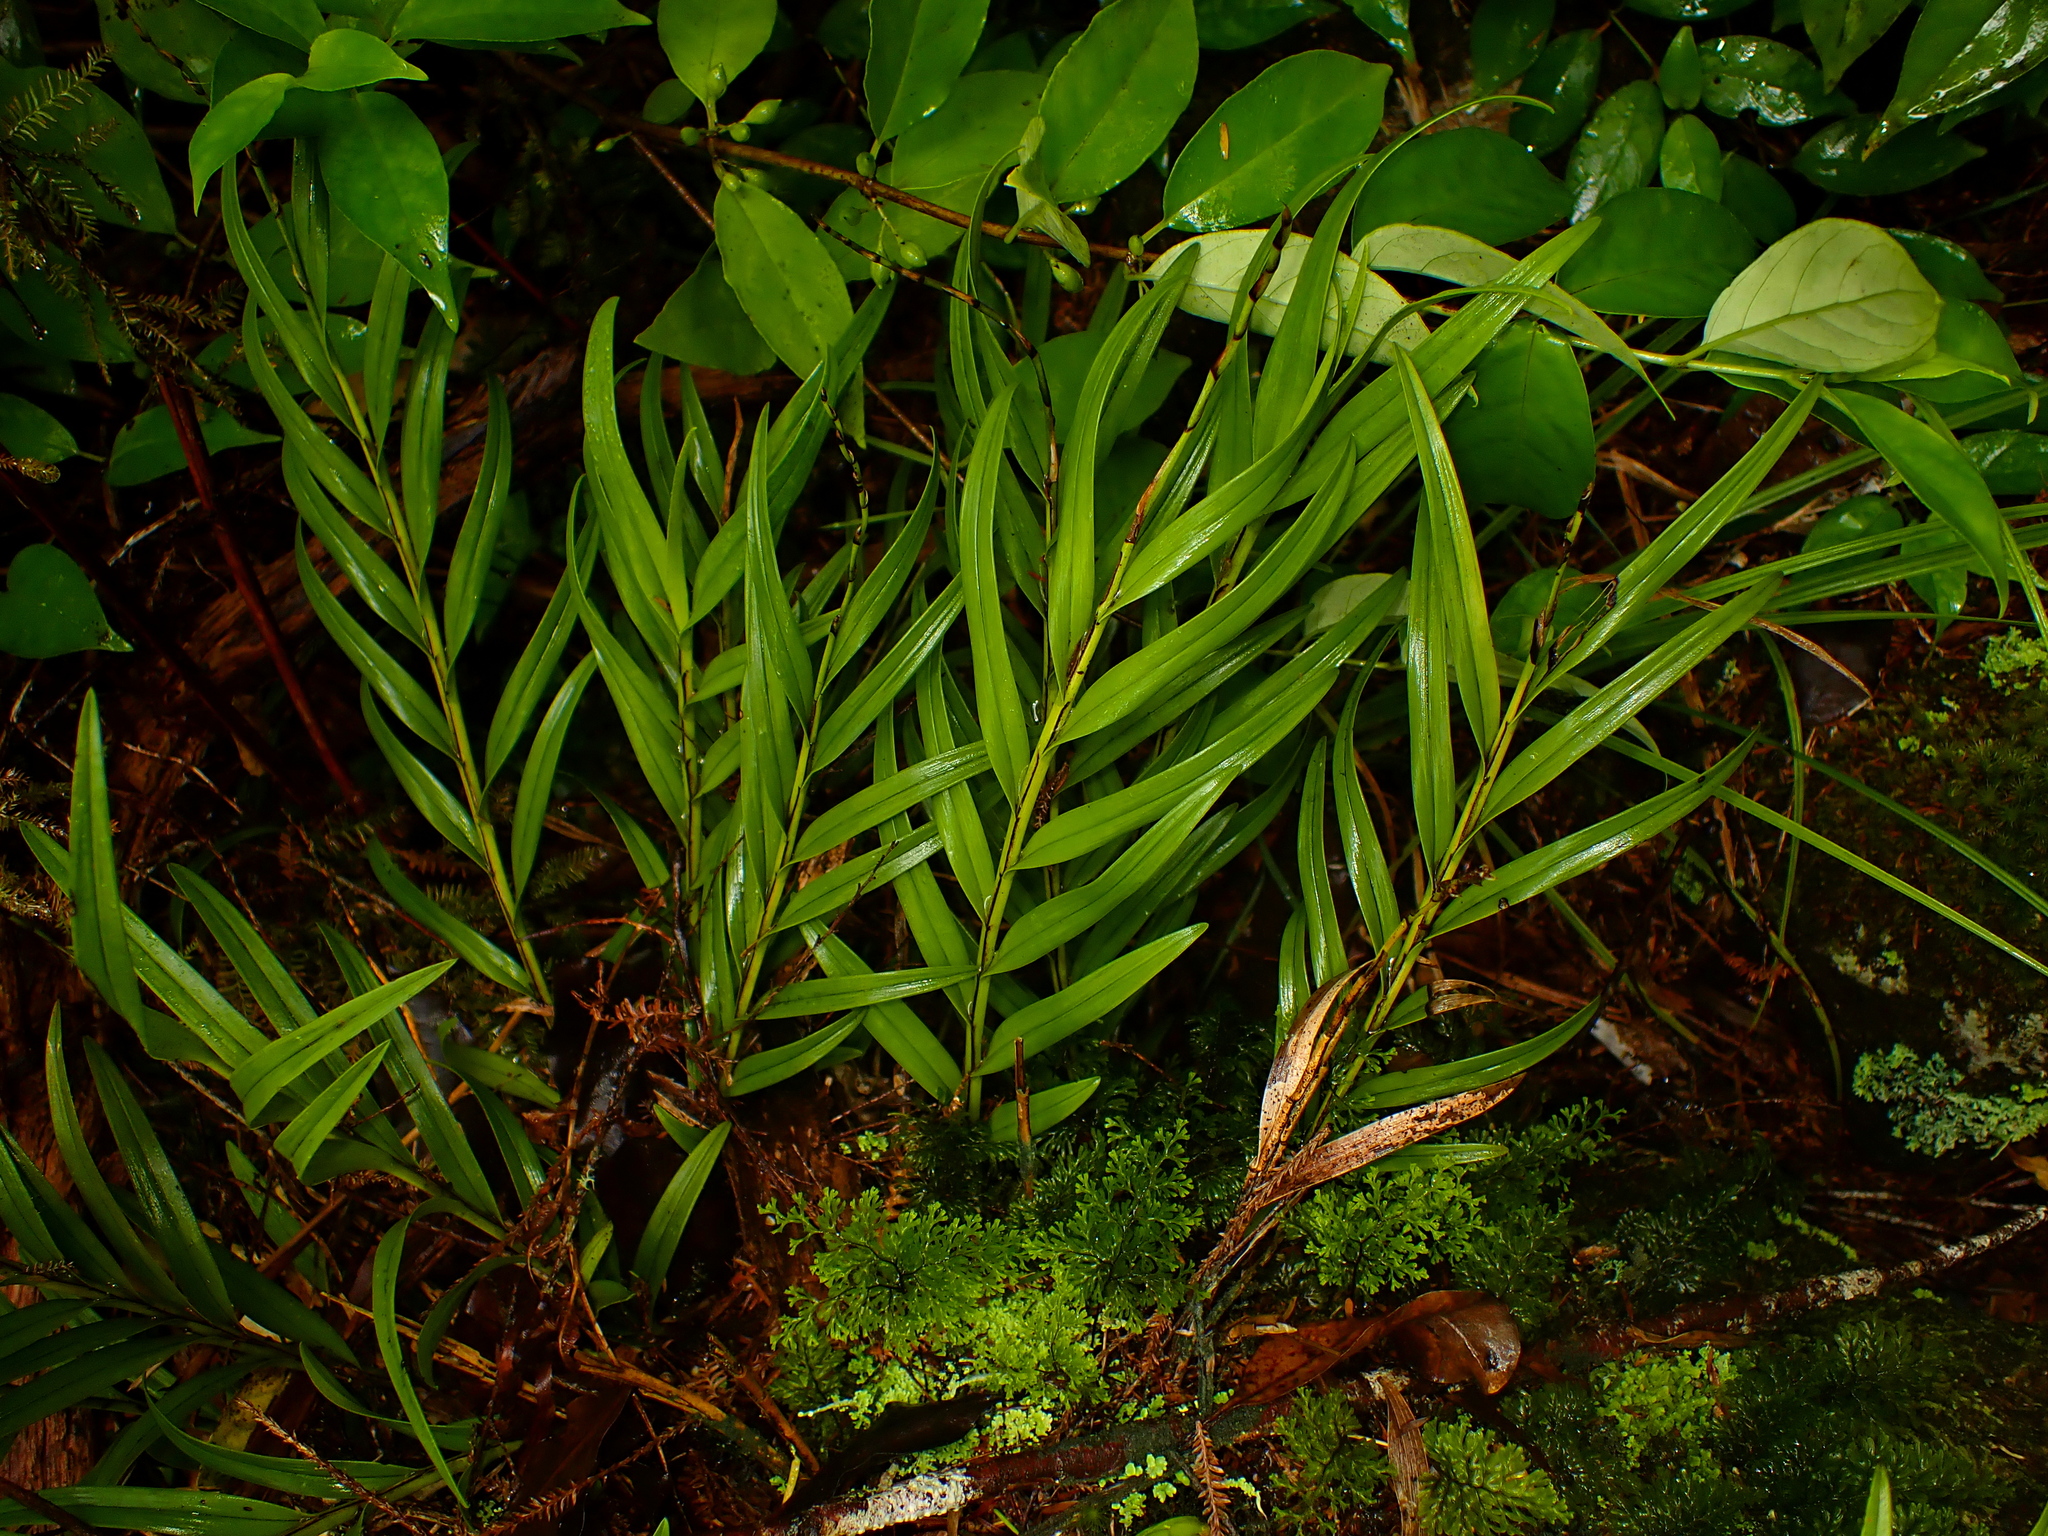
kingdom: Plantae
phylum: Tracheophyta
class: Liliopsida
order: Asparagales
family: Orchidaceae
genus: Earina
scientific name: Earina autumnalis
